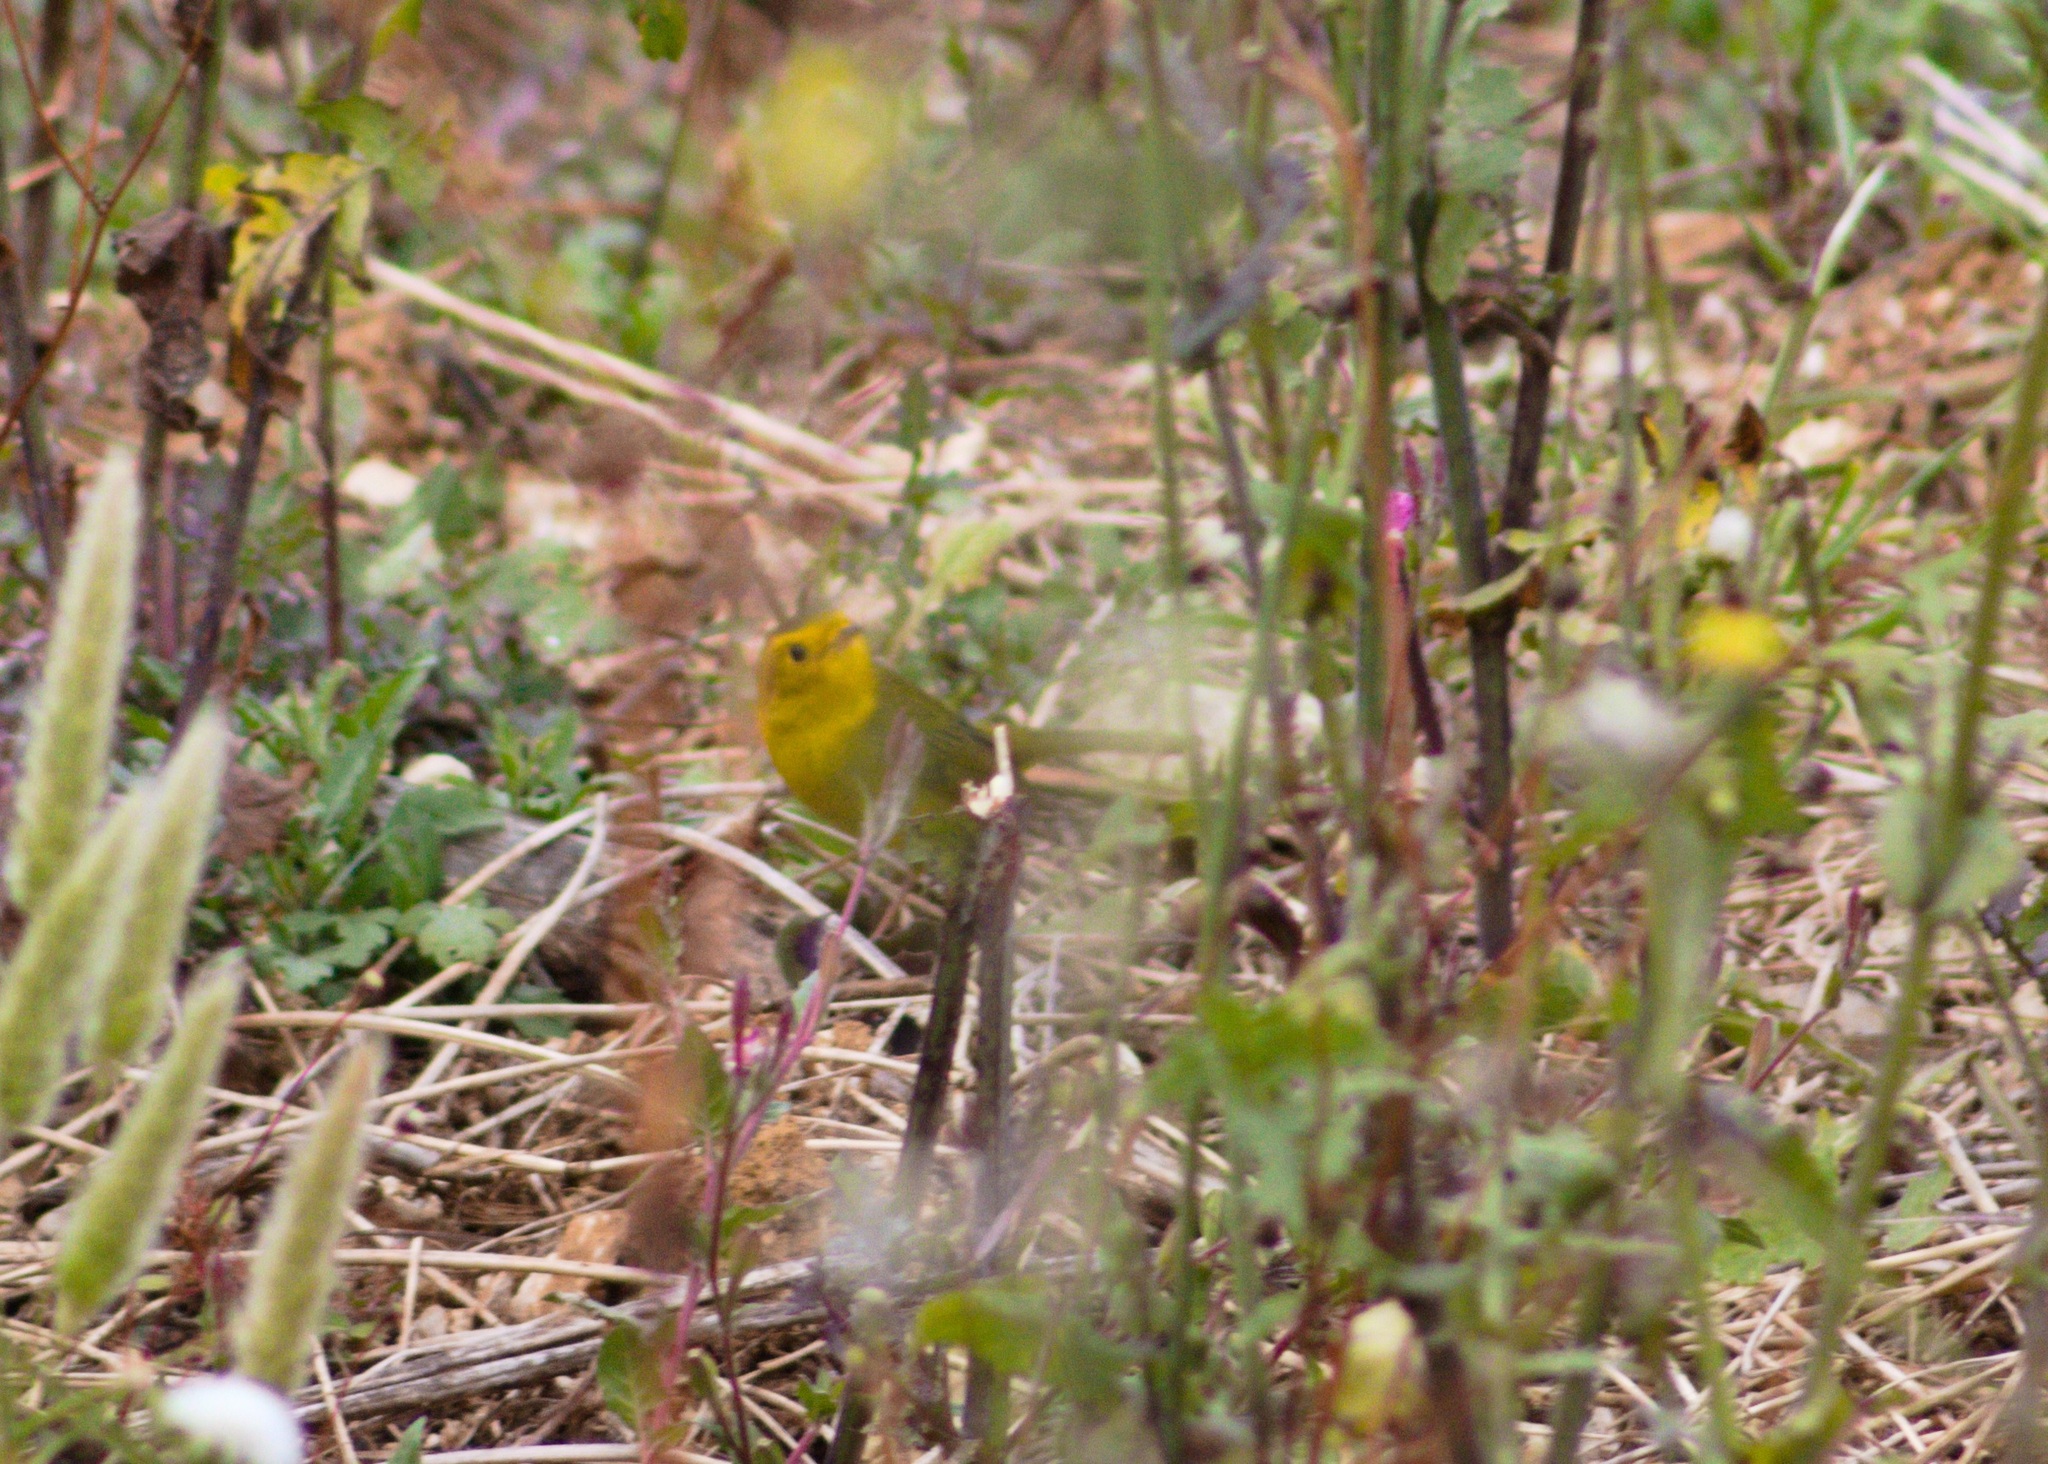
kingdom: Animalia
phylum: Chordata
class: Aves
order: Passeriformes
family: Parulidae
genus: Cardellina
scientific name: Cardellina pusilla
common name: Wilson's warbler
